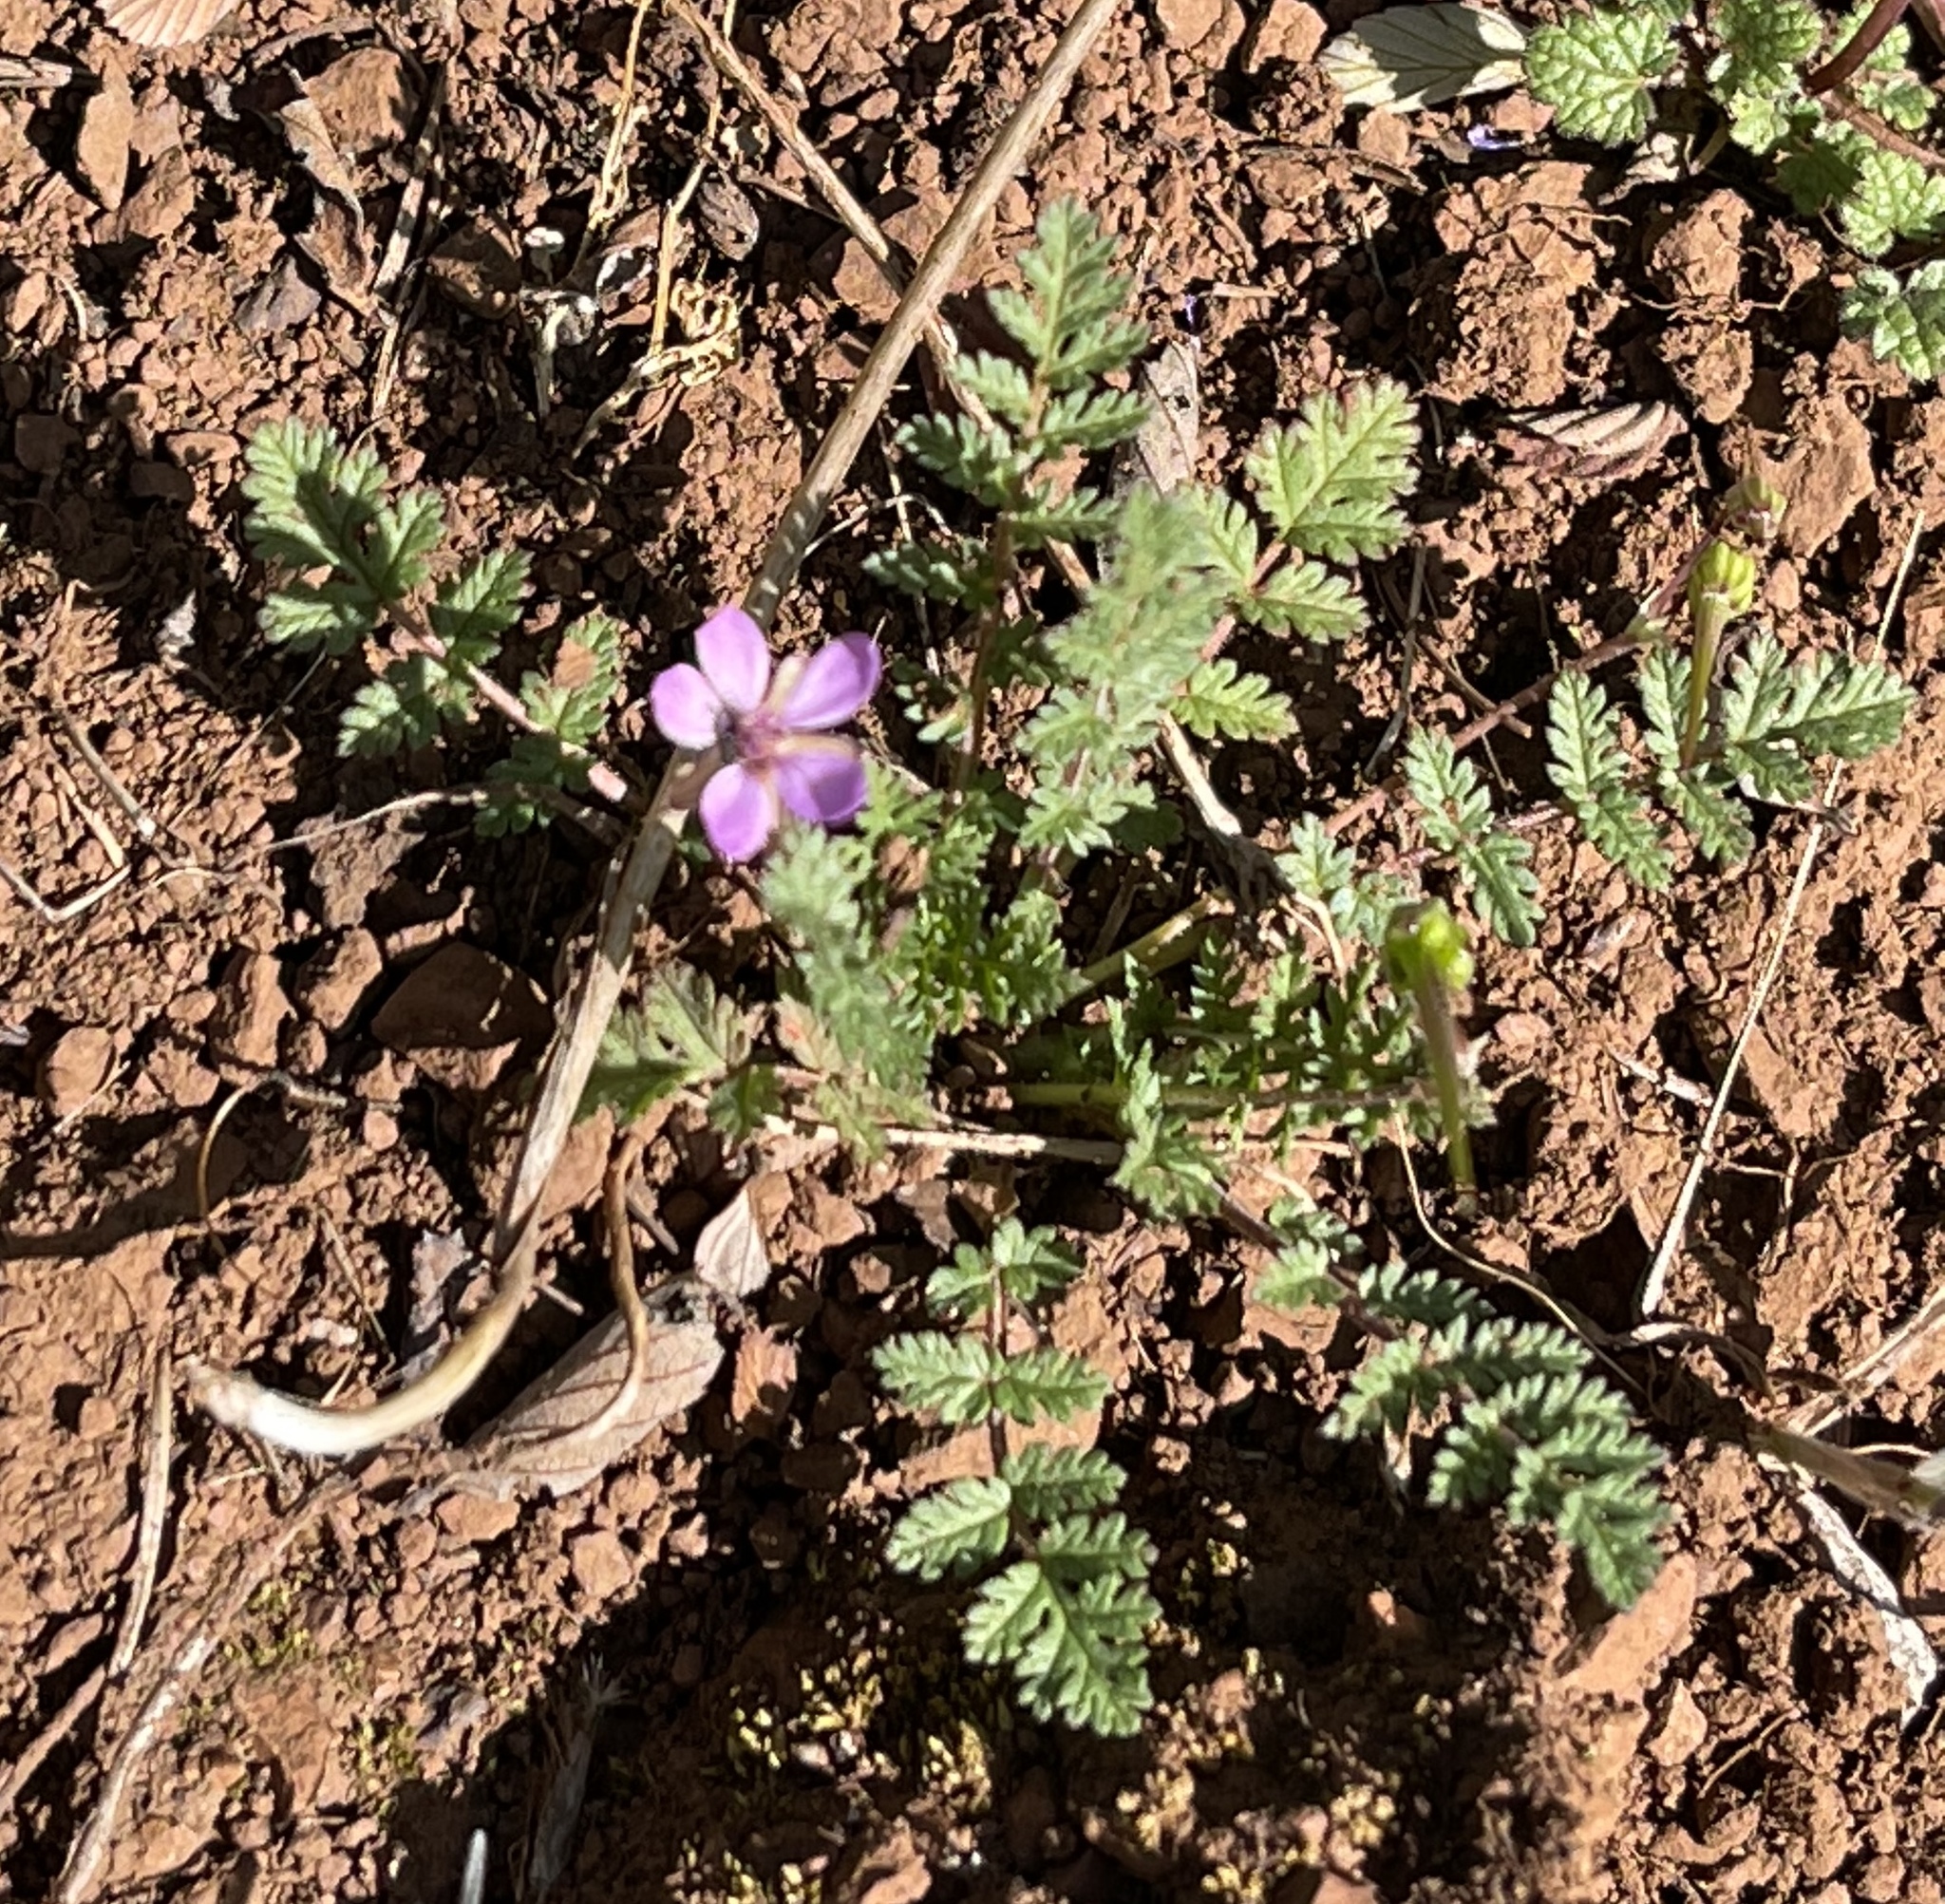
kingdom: Plantae
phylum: Tracheophyta
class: Magnoliopsida
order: Geraniales
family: Geraniaceae
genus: Erodium
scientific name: Erodium cicutarium
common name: Common stork's-bill
